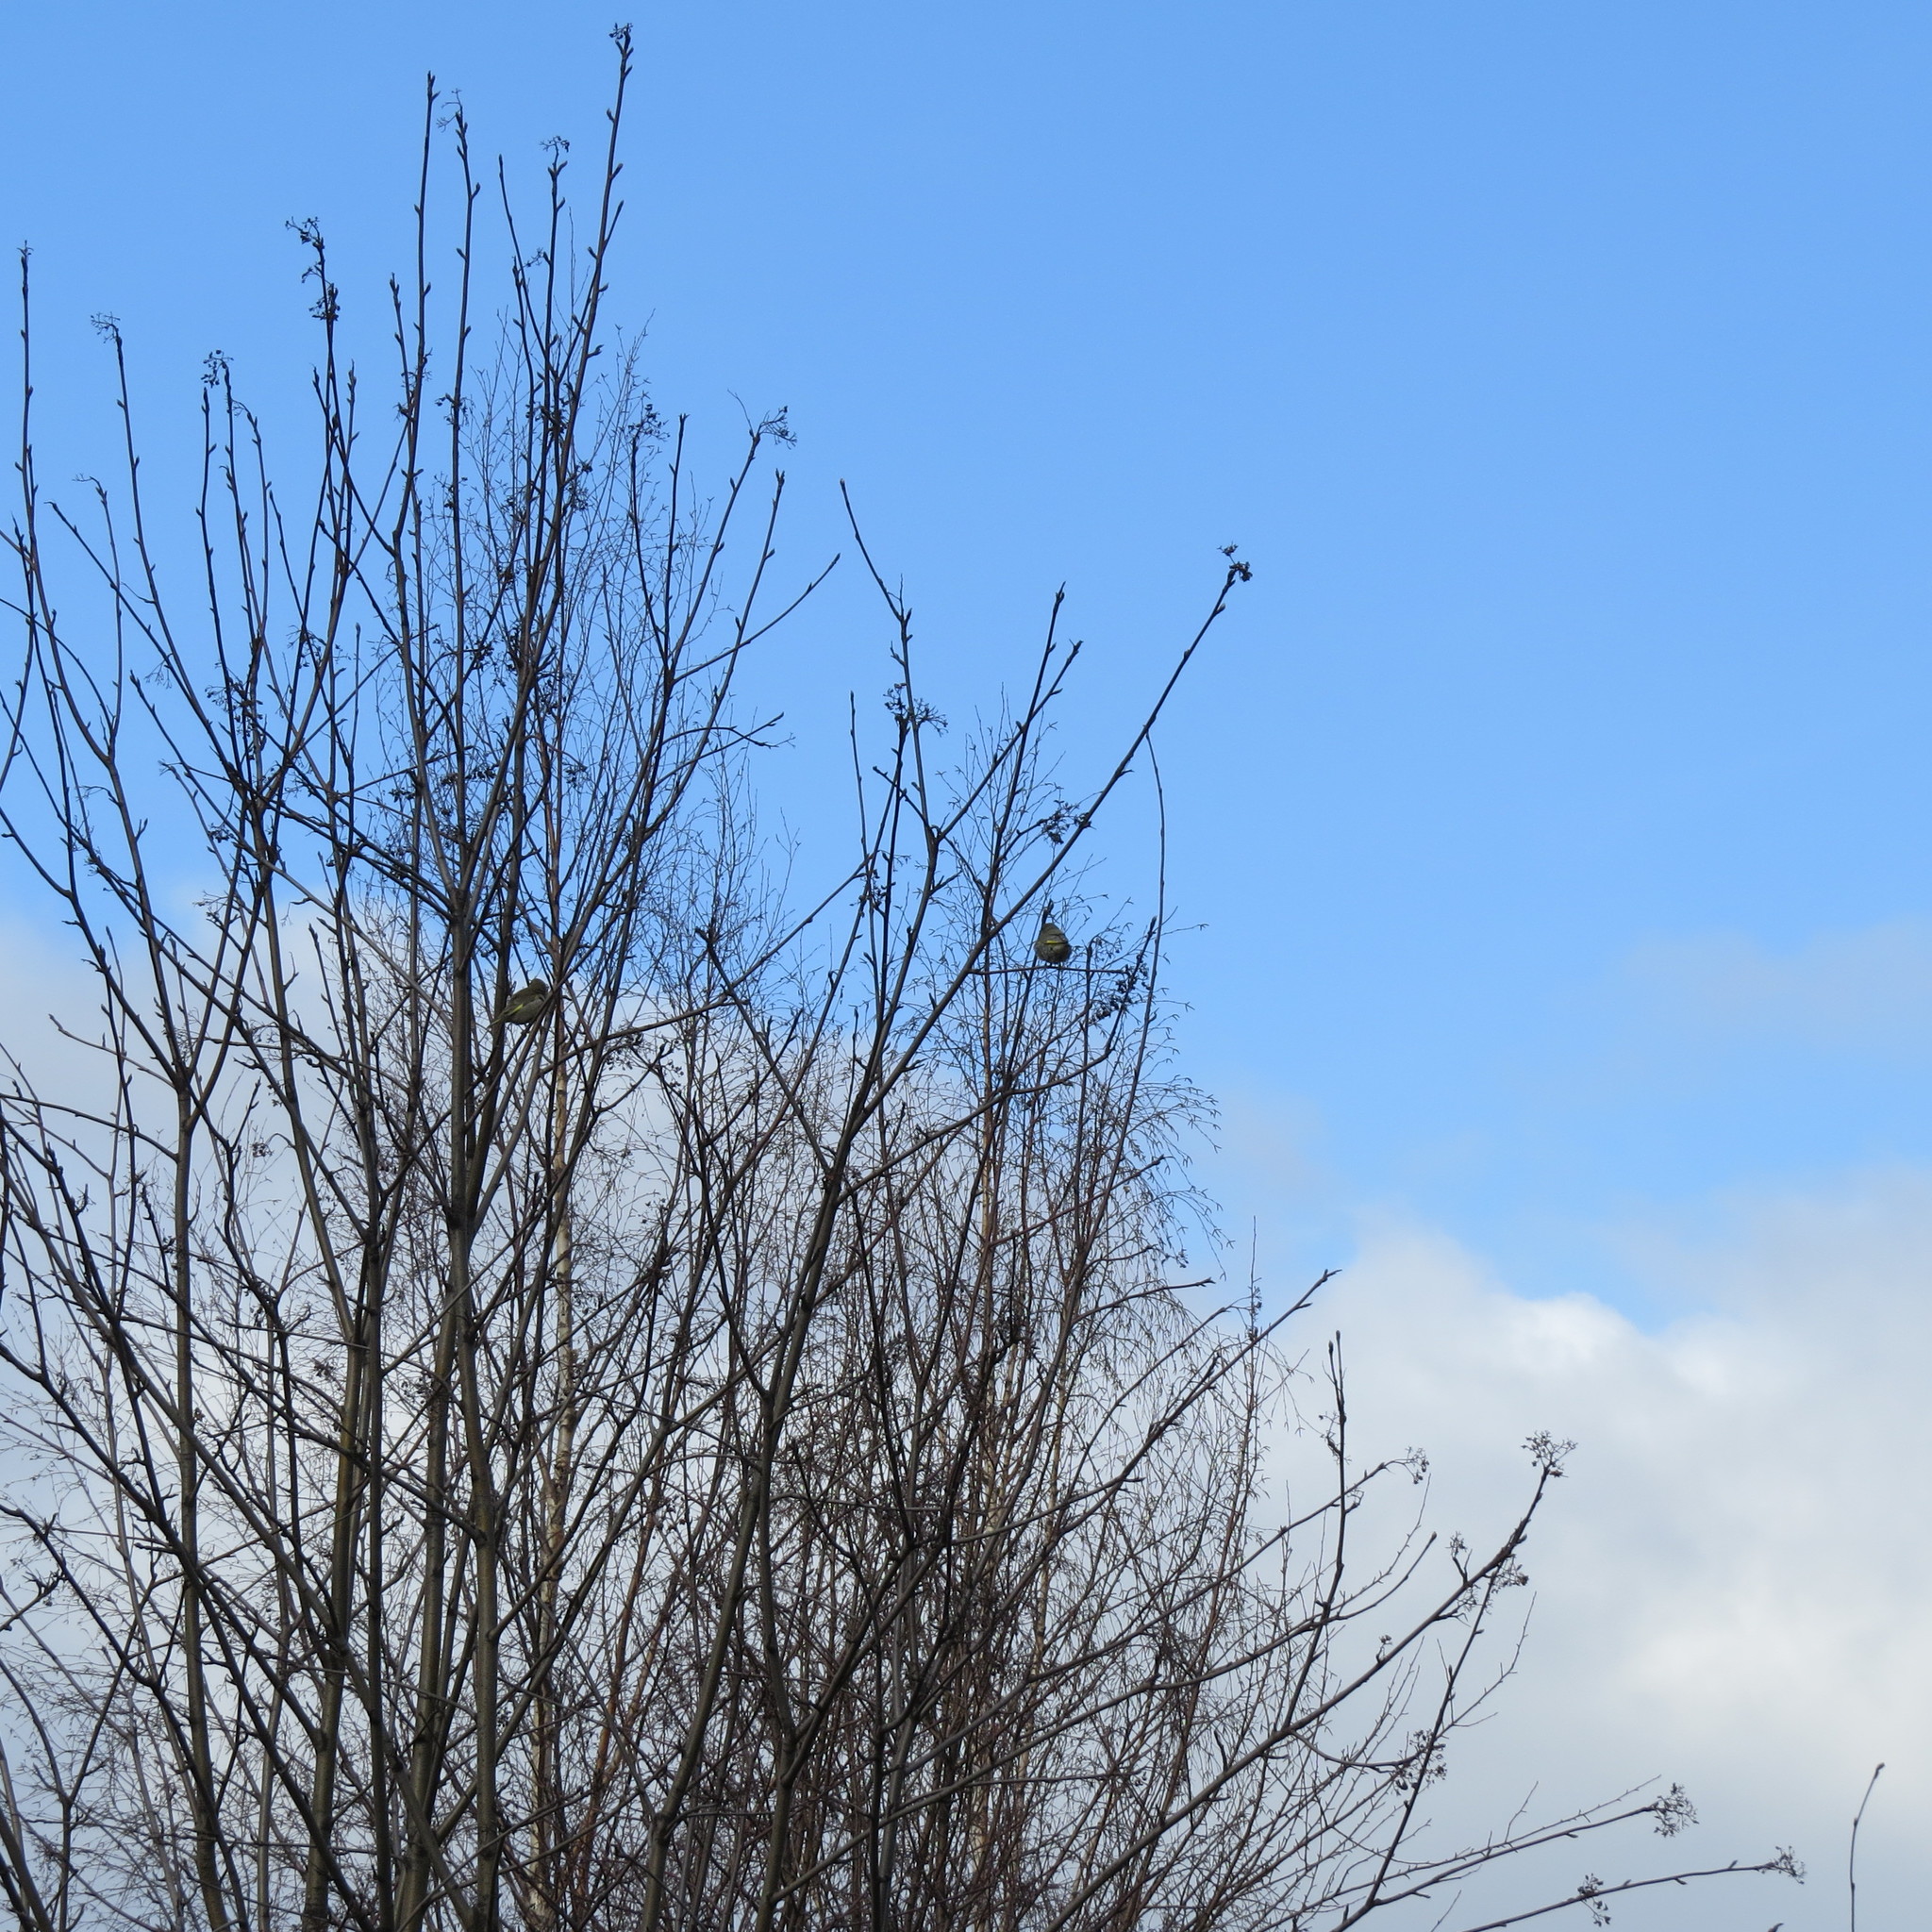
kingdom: Plantae
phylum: Tracheophyta
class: Liliopsida
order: Poales
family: Poaceae
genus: Chloris
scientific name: Chloris chloris
